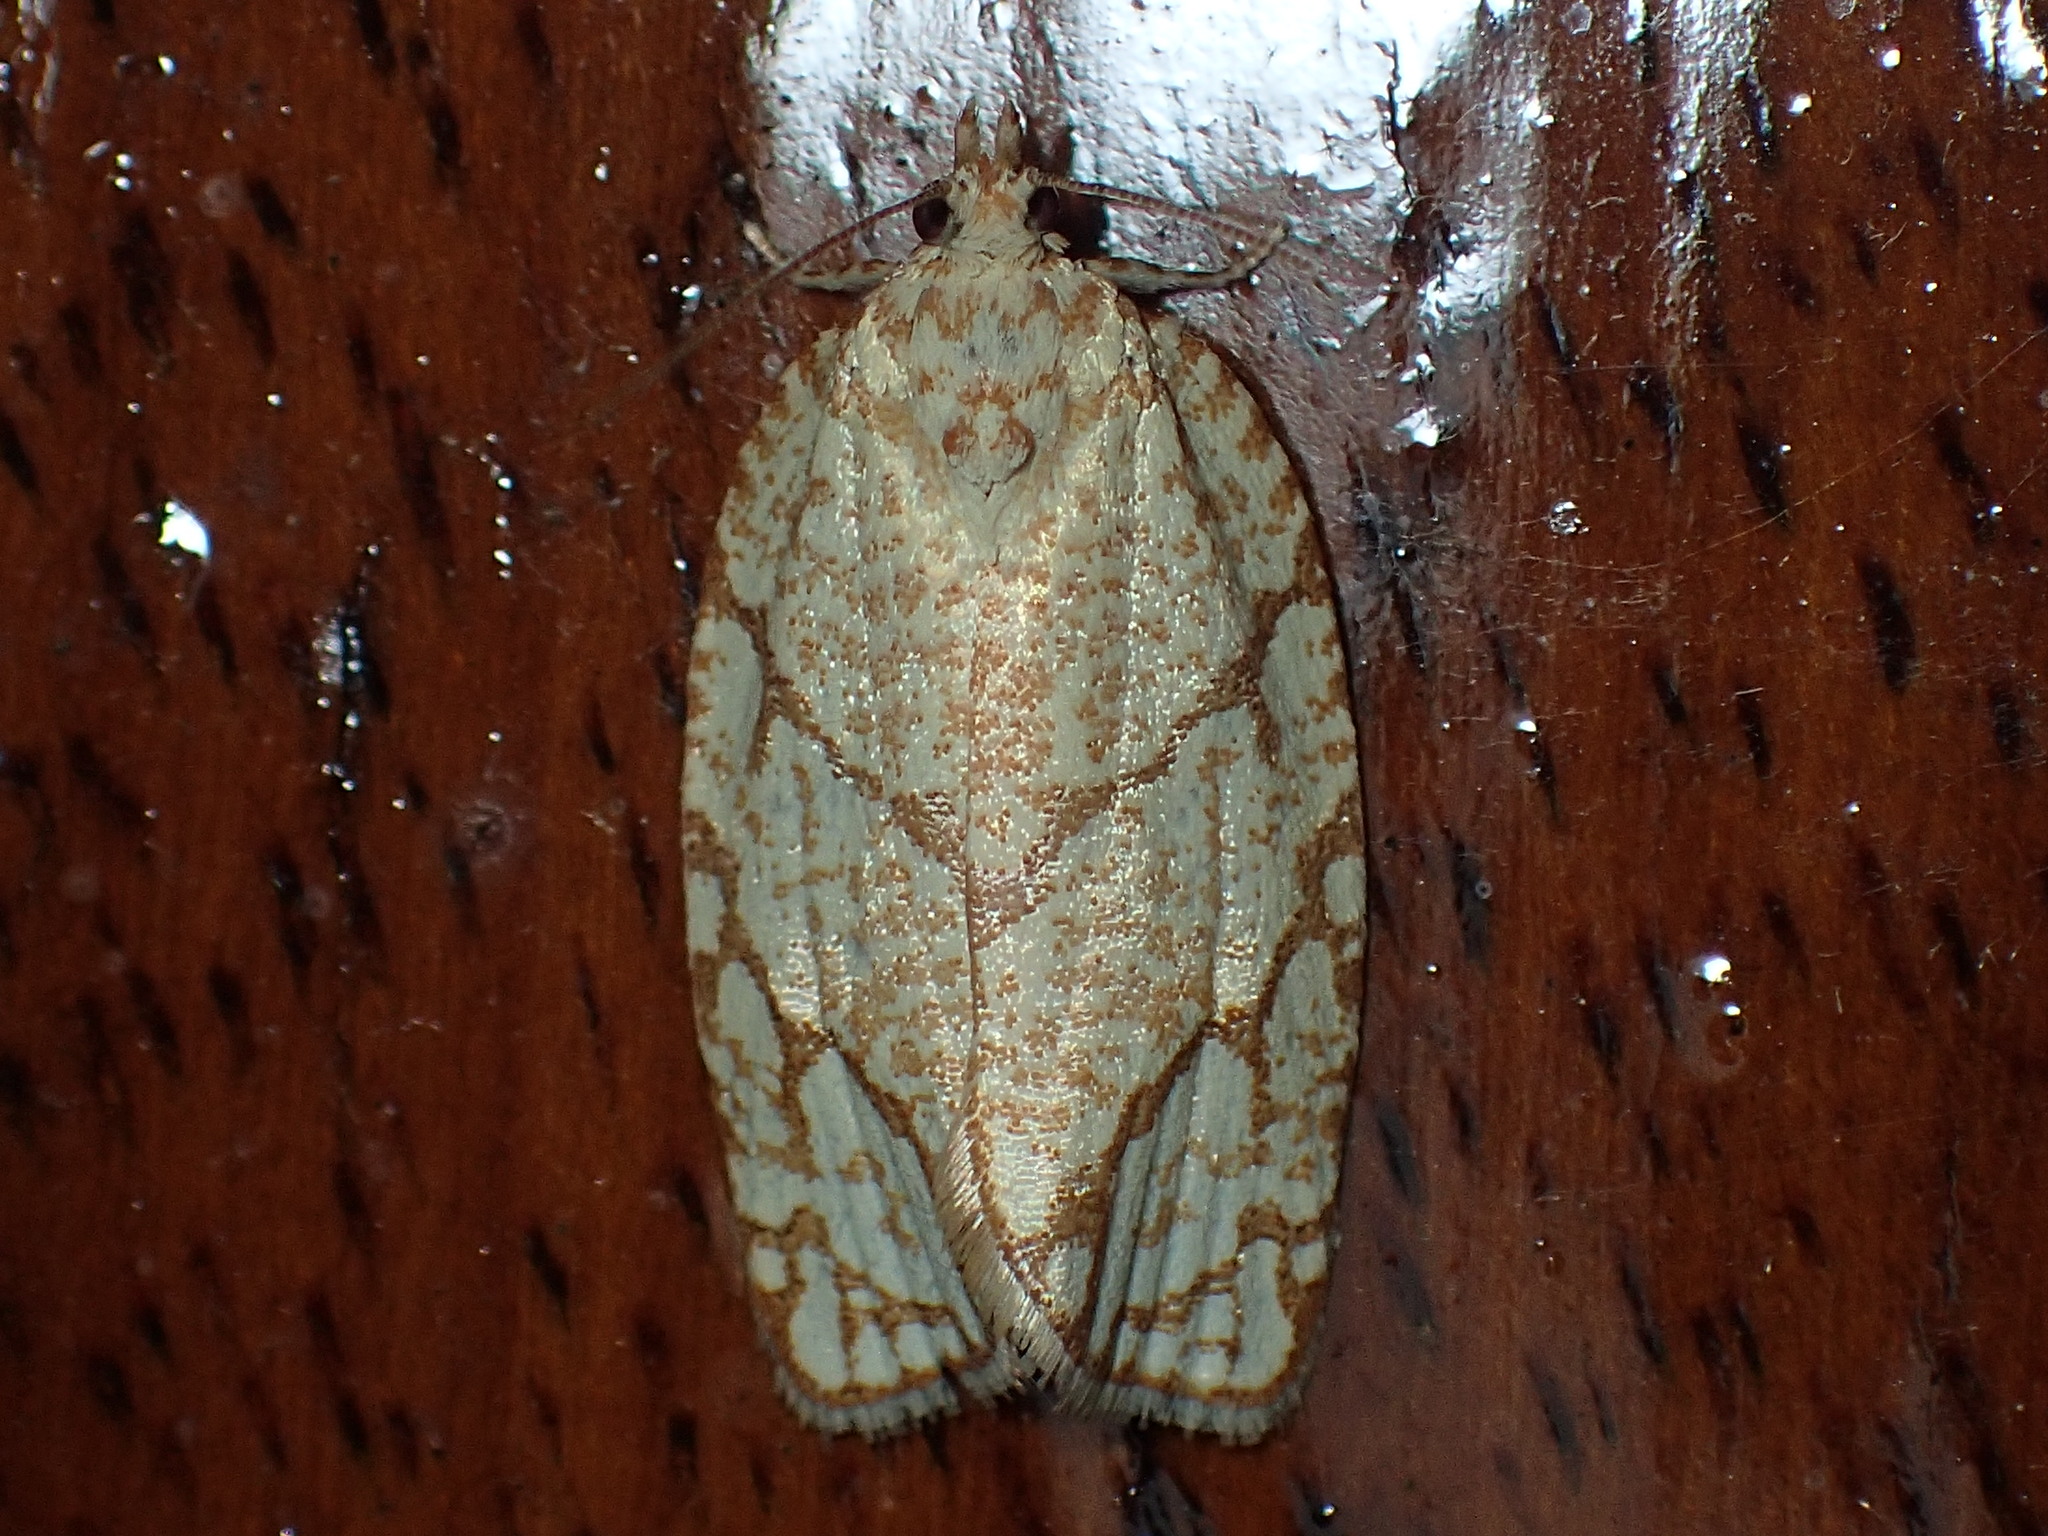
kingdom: Animalia
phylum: Arthropoda
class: Insecta
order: Lepidoptera
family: Tortricidae
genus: Argyrotaenia
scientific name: Argyrotaenia quercifoliana
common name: Yellow-winged oak leafroller moth
